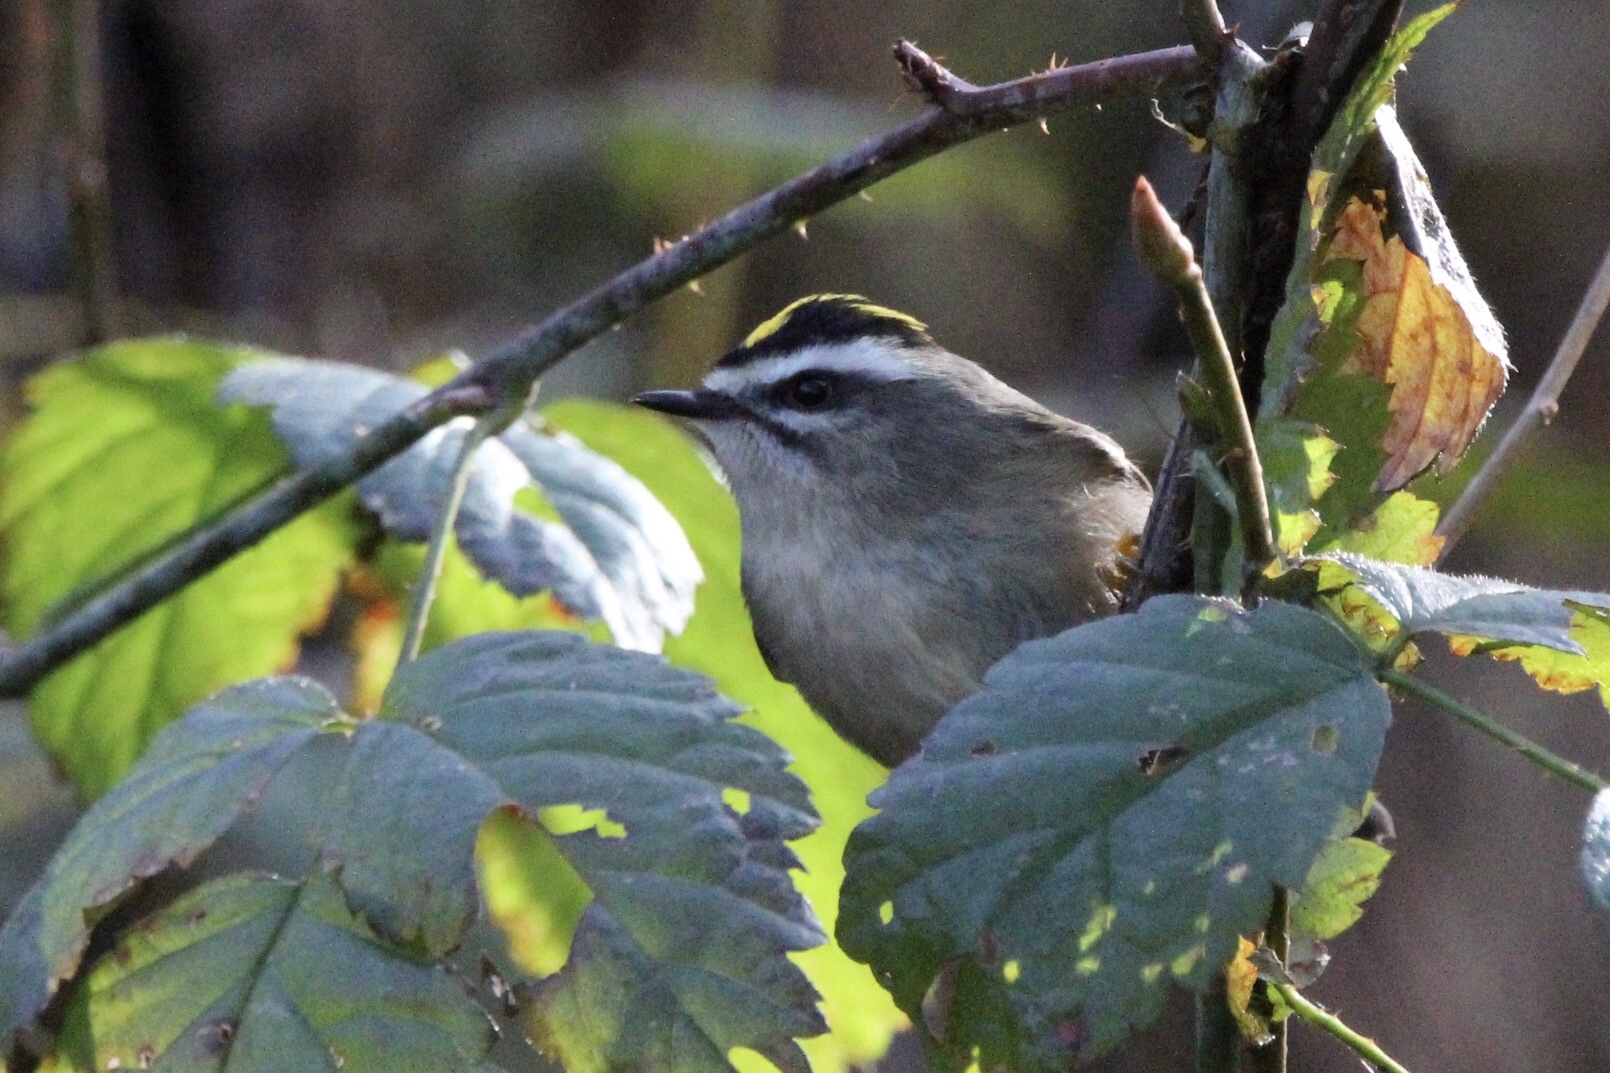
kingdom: Animalia
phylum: Chordata
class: Aves
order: Passeriformes
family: Regulidae
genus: Regulus
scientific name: Regulus satrapa
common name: Golden-crowned kinglet
